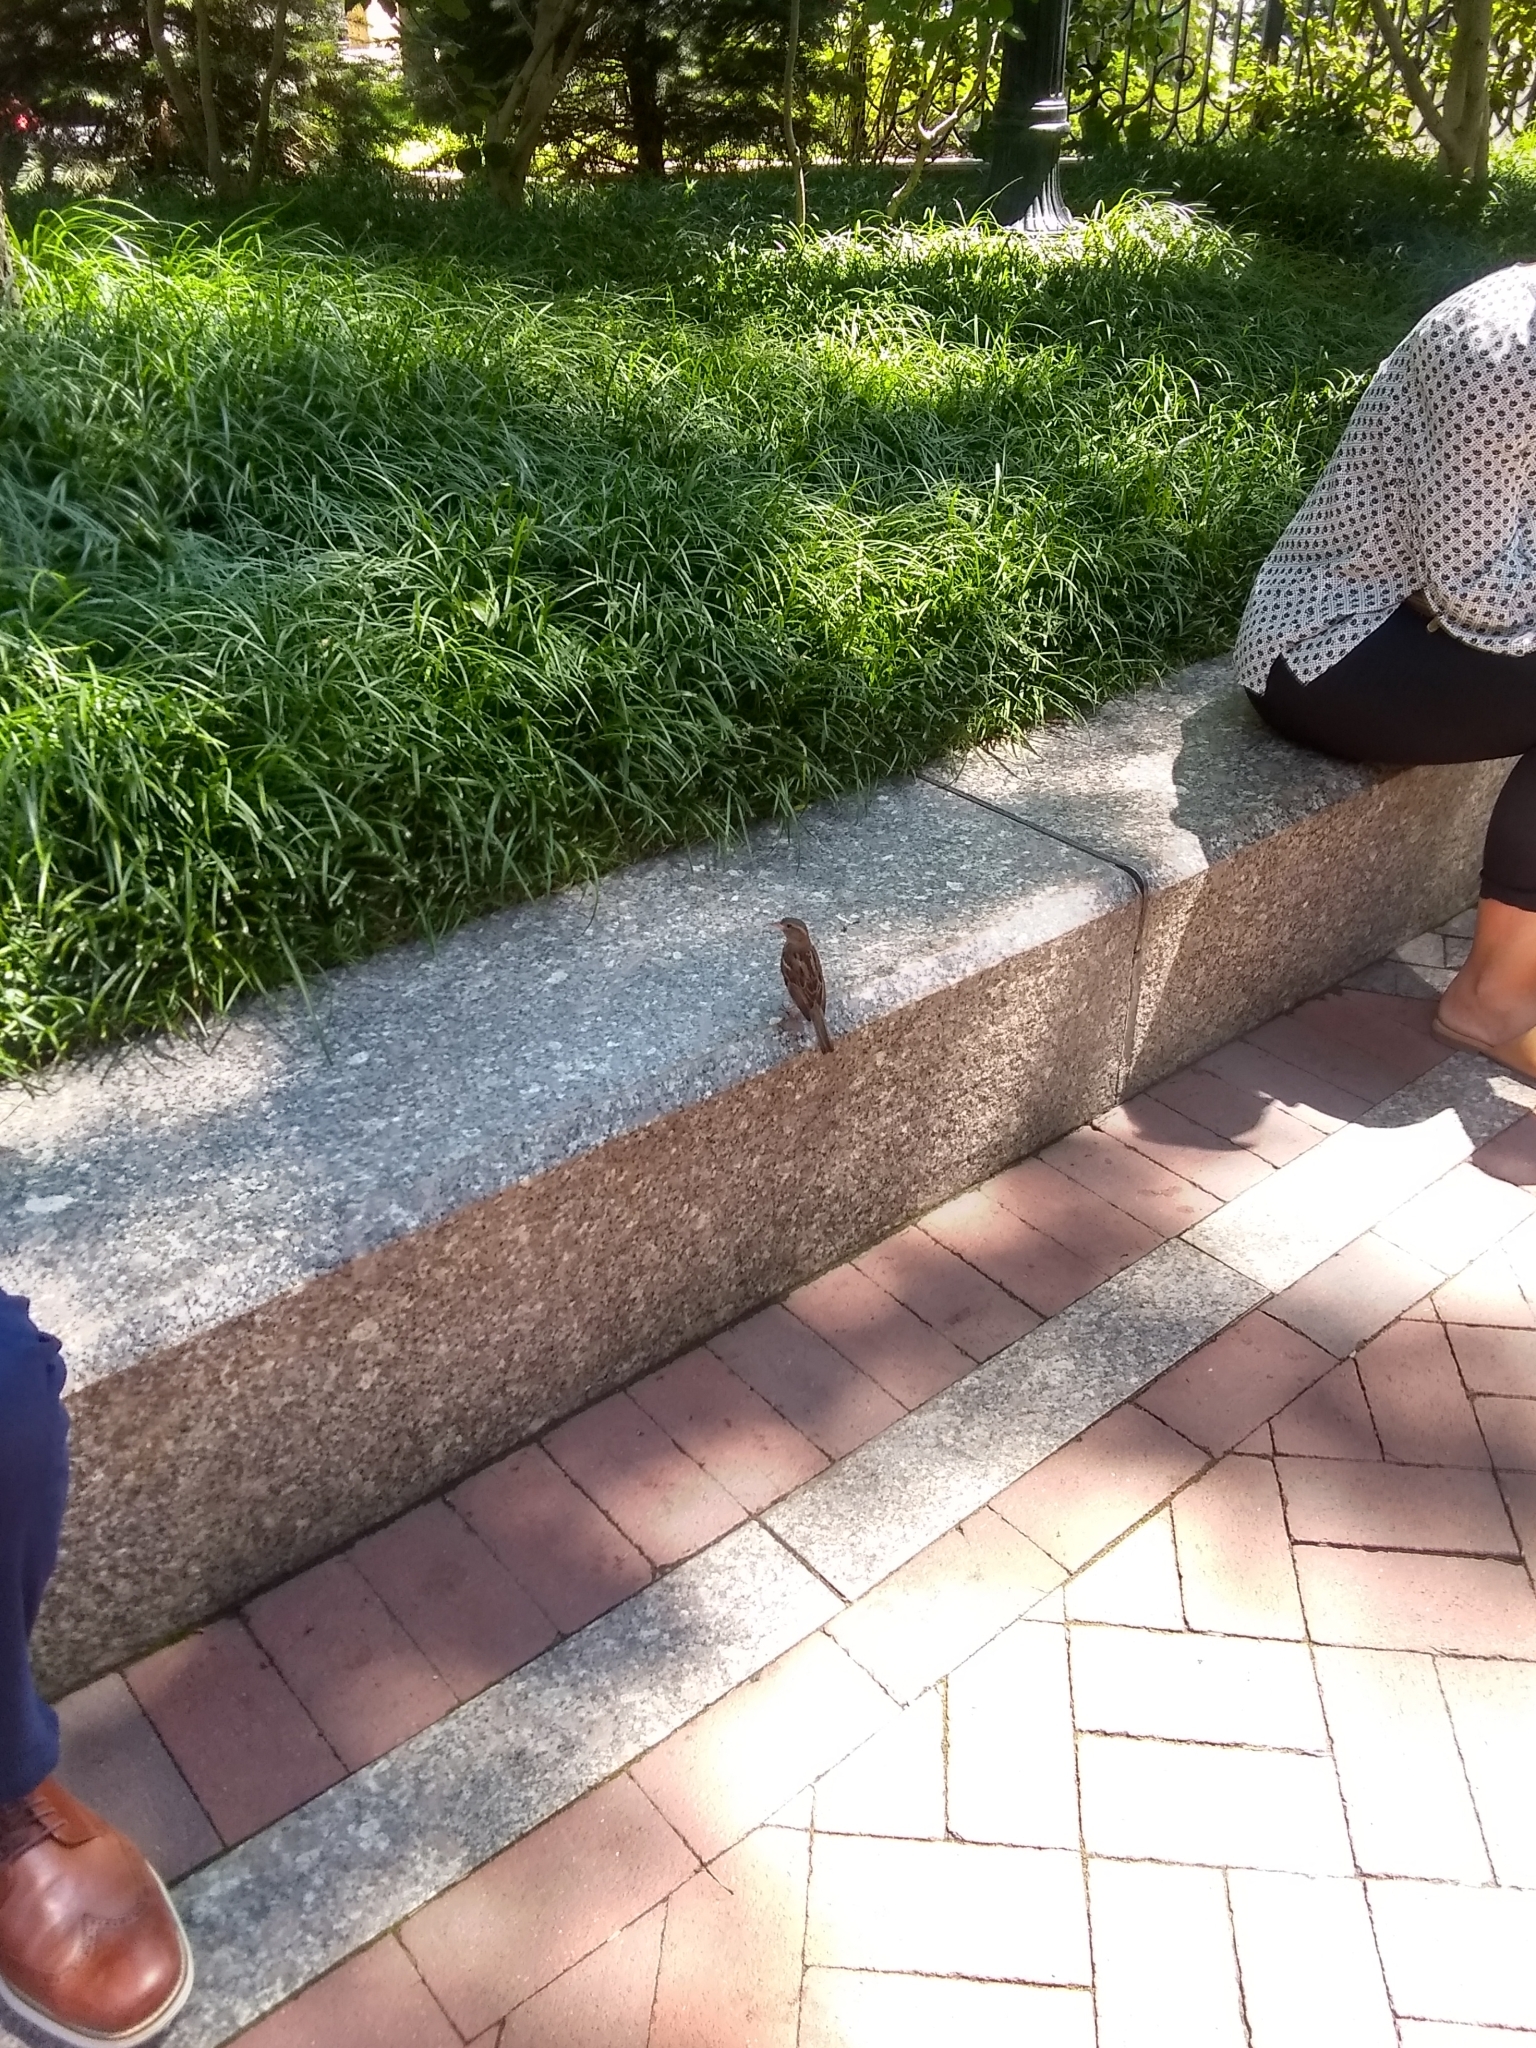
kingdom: Animalia
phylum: Chordata
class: Aves
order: Passeriformes
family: Passeridae
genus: Passer
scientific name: Passer domesticus
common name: House sparrow
